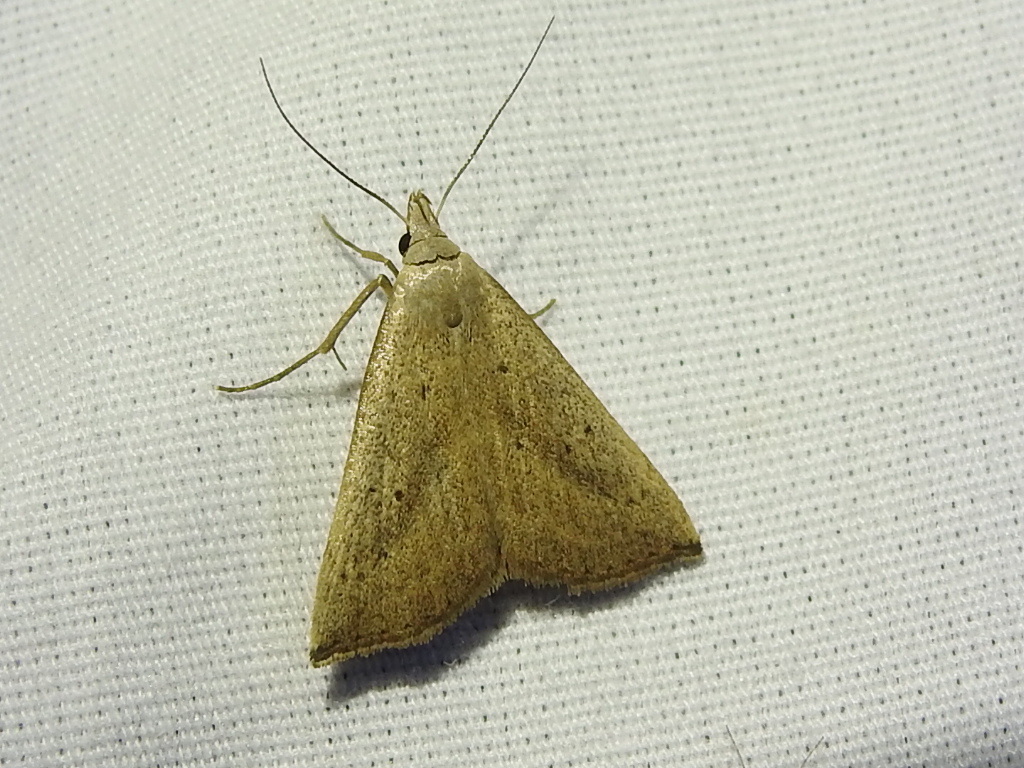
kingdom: Animalia
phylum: Arthropoda
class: Insecta
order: Lepidoptera
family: Erebidae
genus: Macrochilo
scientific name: Macrochilo louisiana
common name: Louisiana macrochilo
